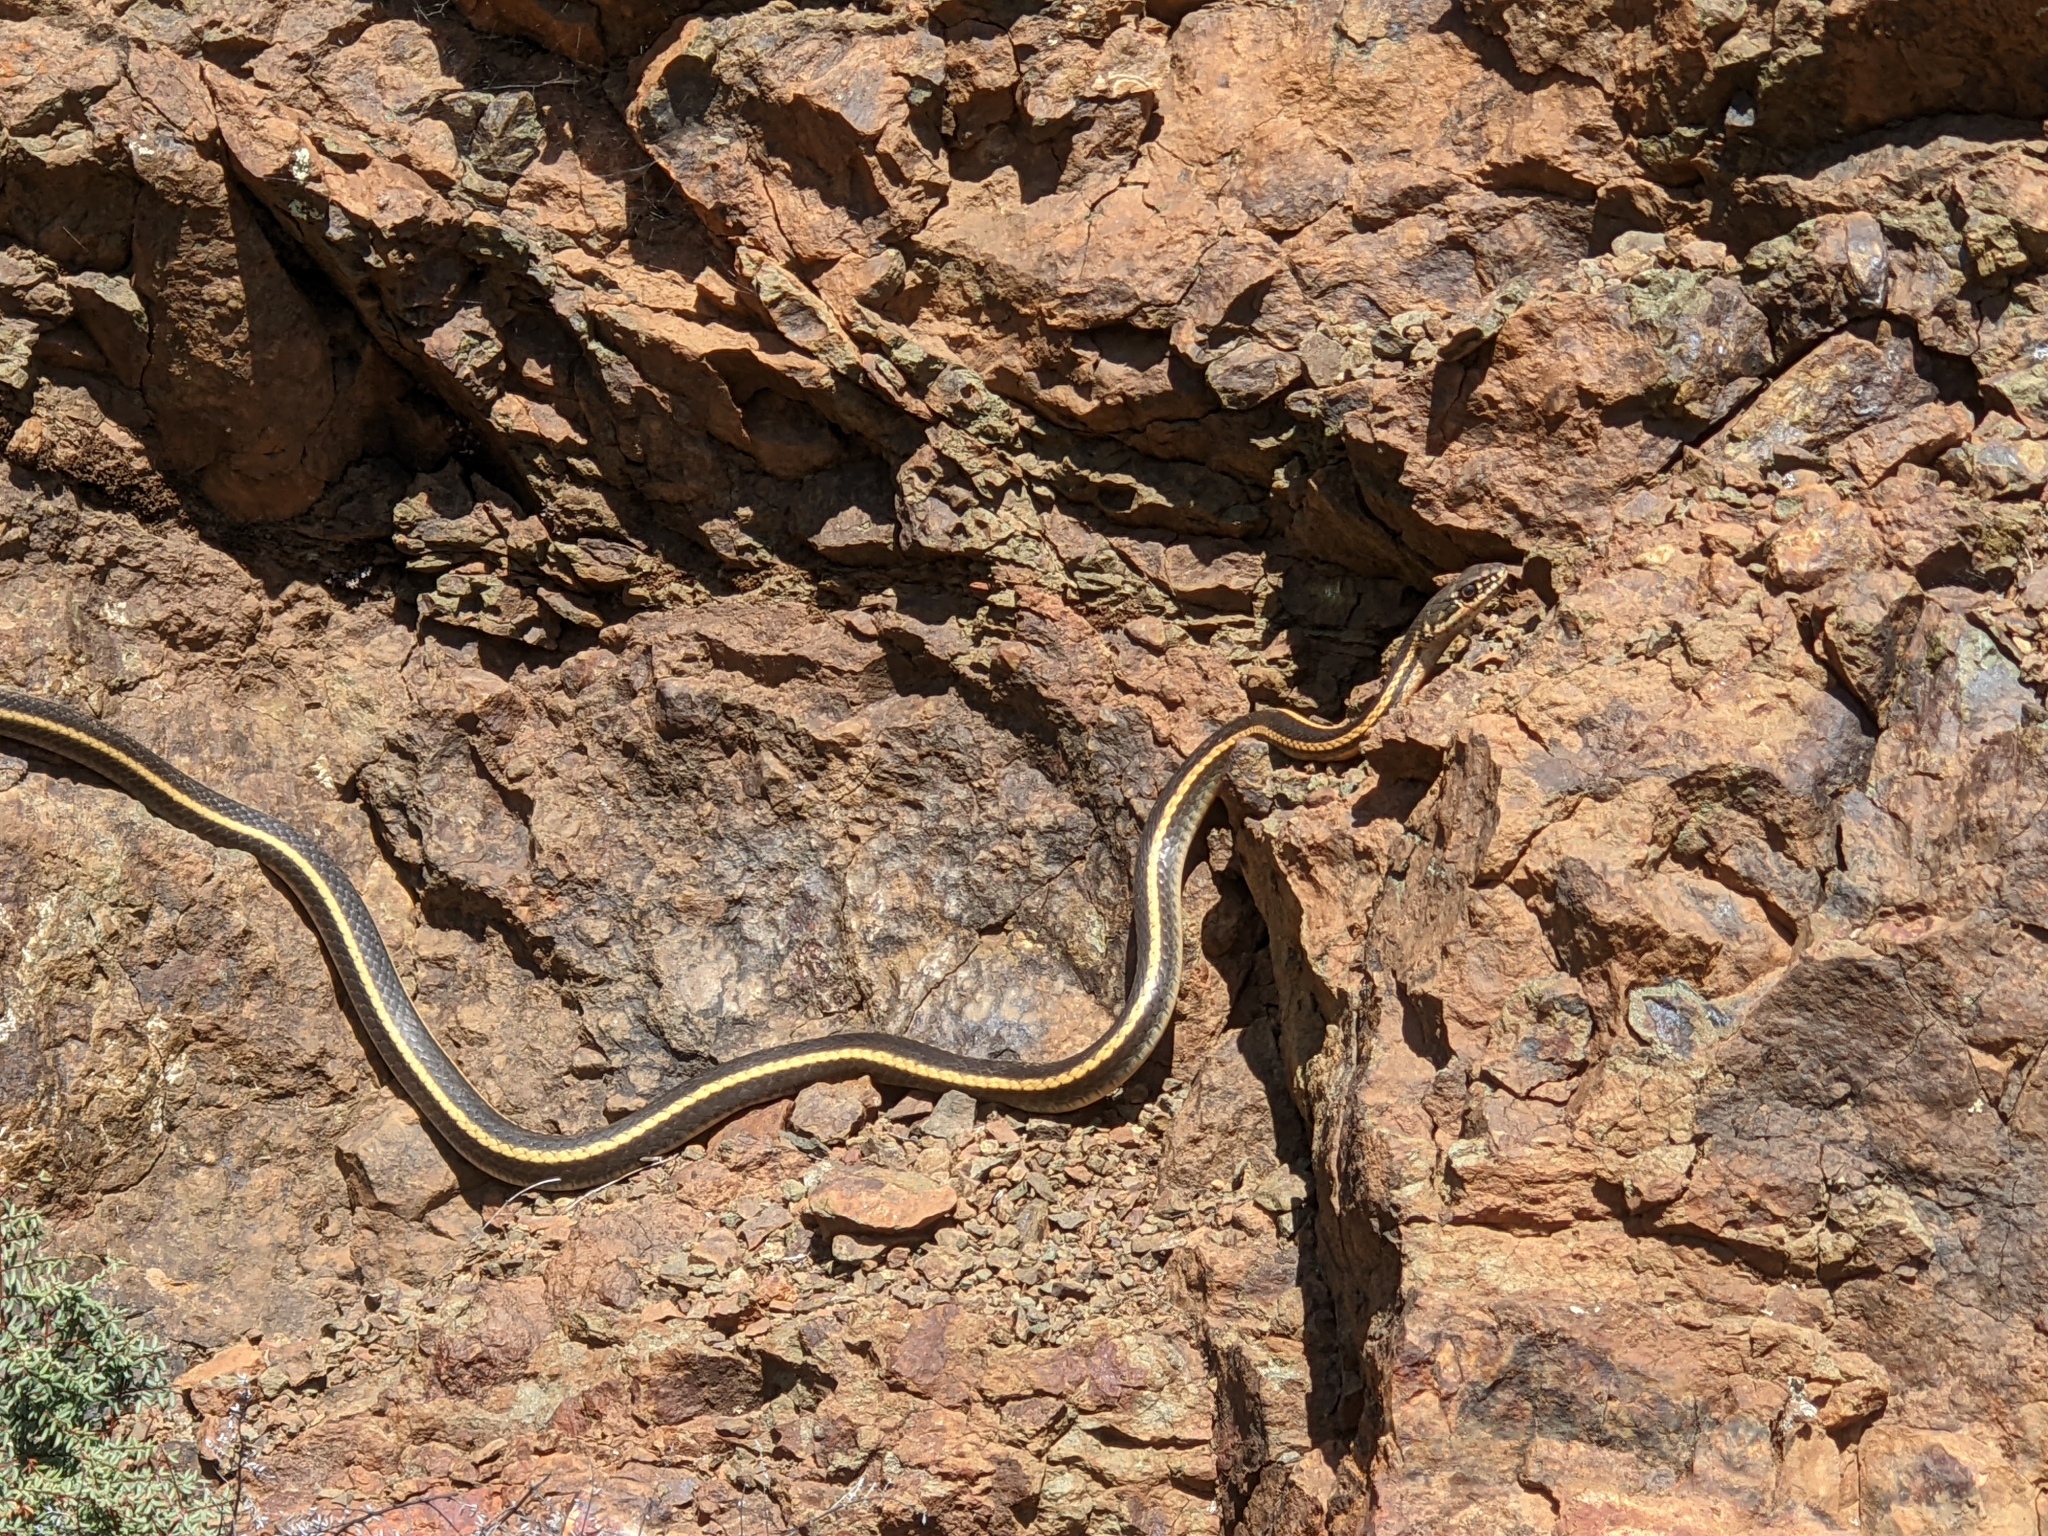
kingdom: Animalia
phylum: Chordata
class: Squamata
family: Colubridae
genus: Masticophis
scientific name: Masticophis lateralis
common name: Striped racer
